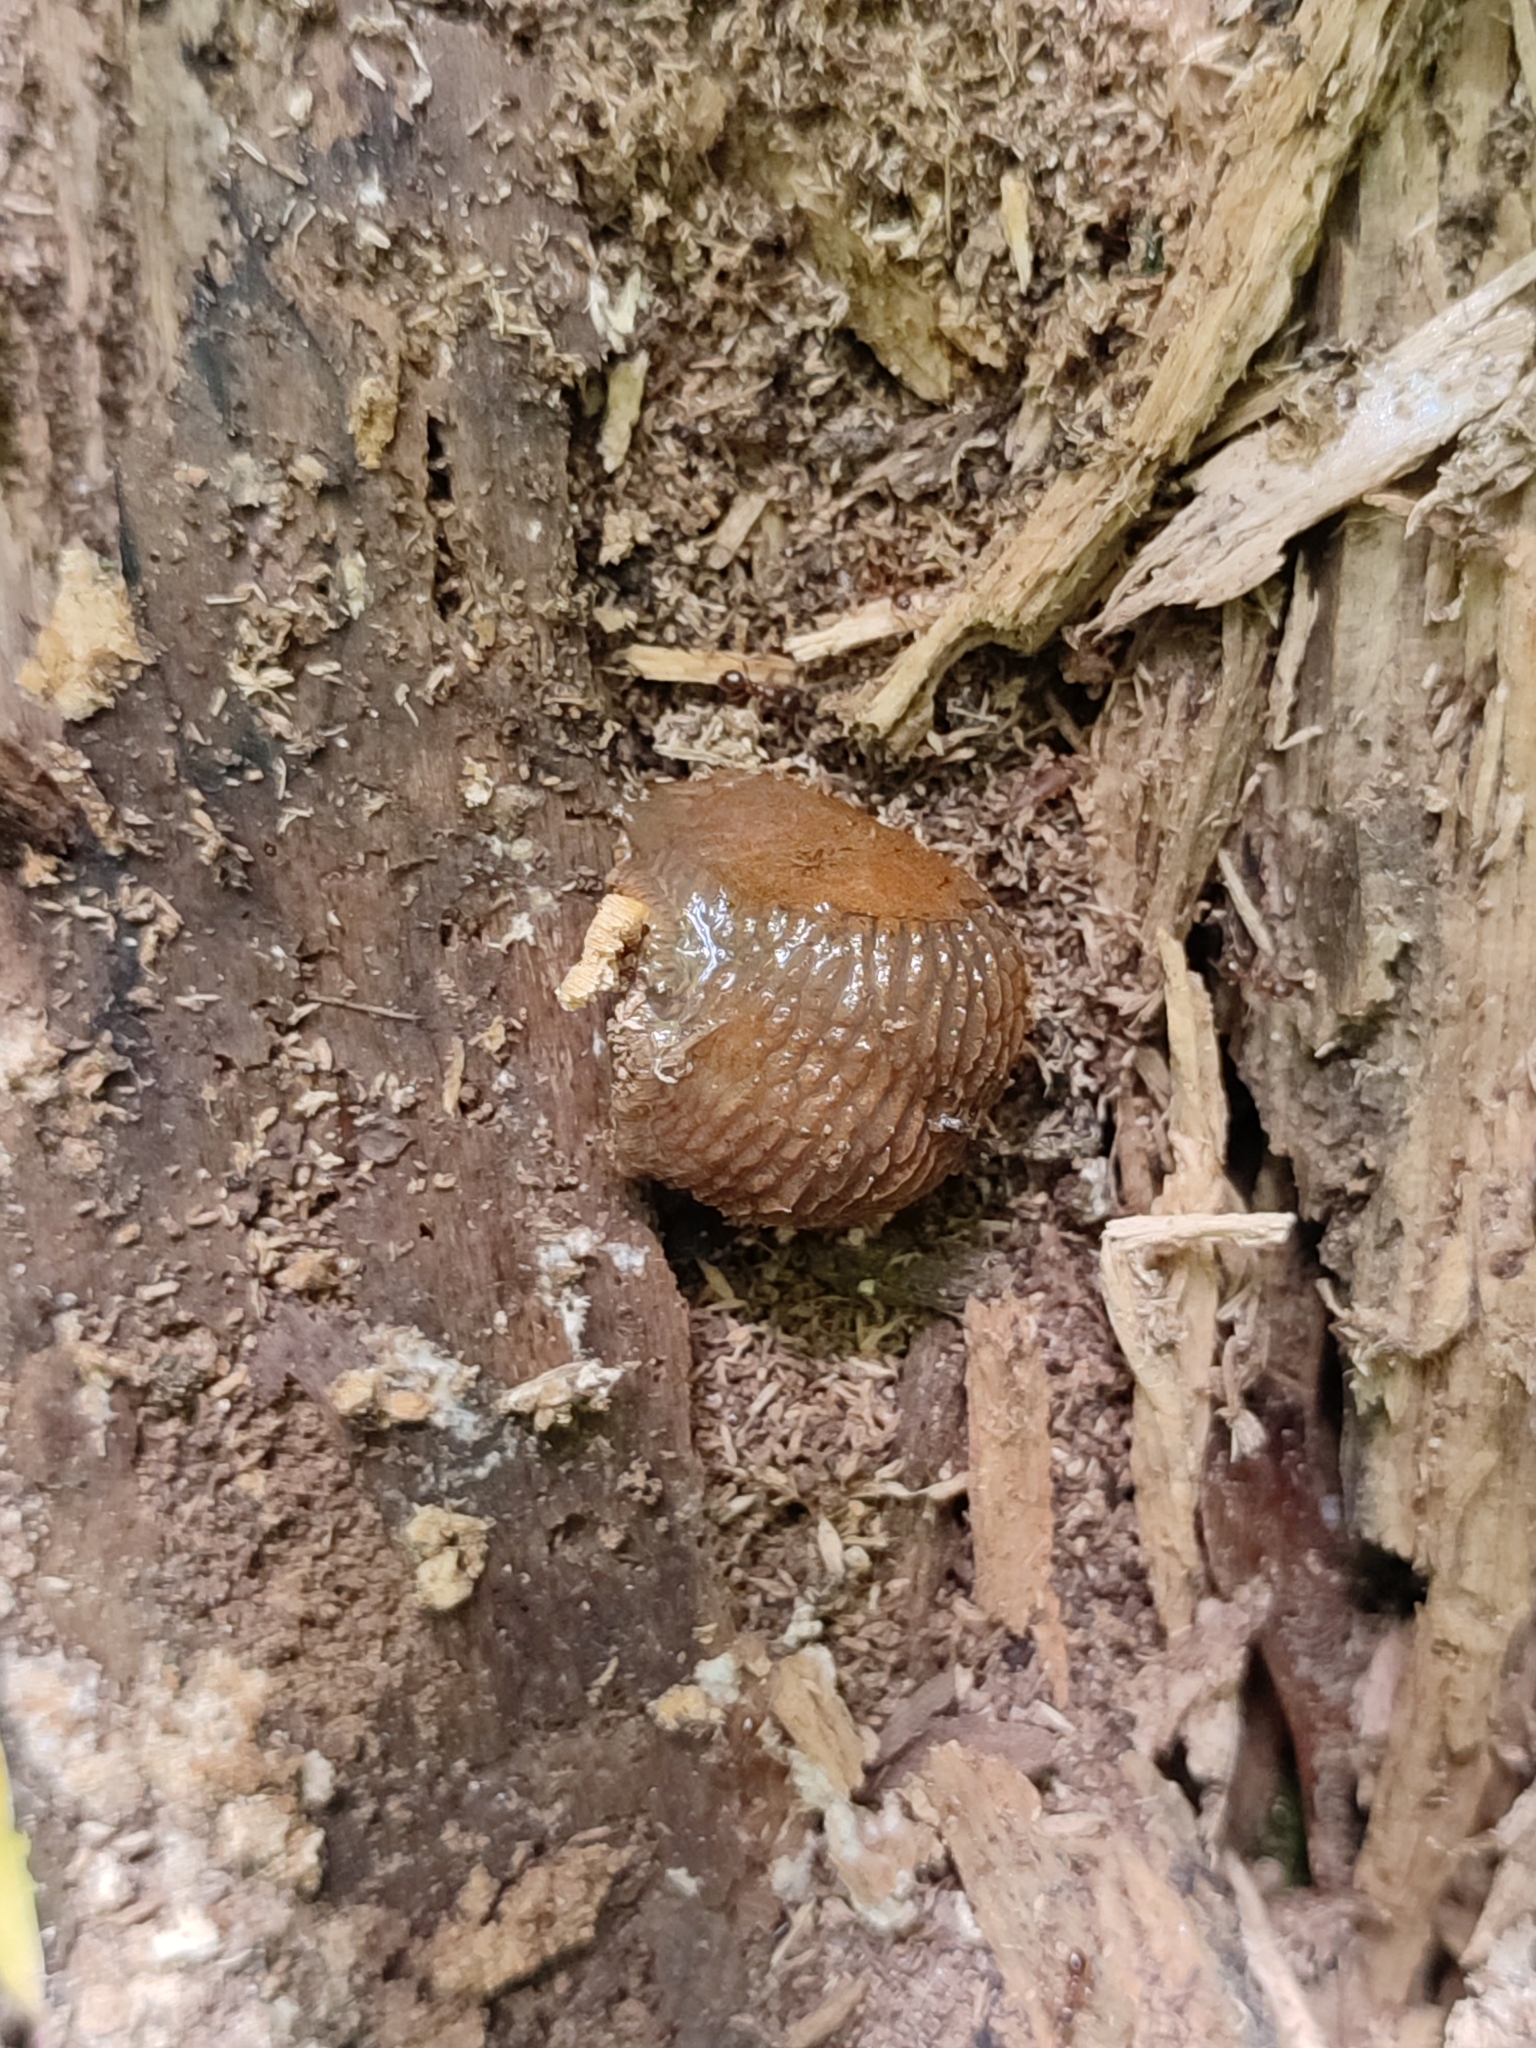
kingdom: Animalia
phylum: Mollusca
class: Gastropoda
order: Stylommatophora
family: Arionidae
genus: Arion
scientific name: Arion vulgaris
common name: Lusitanian slug
